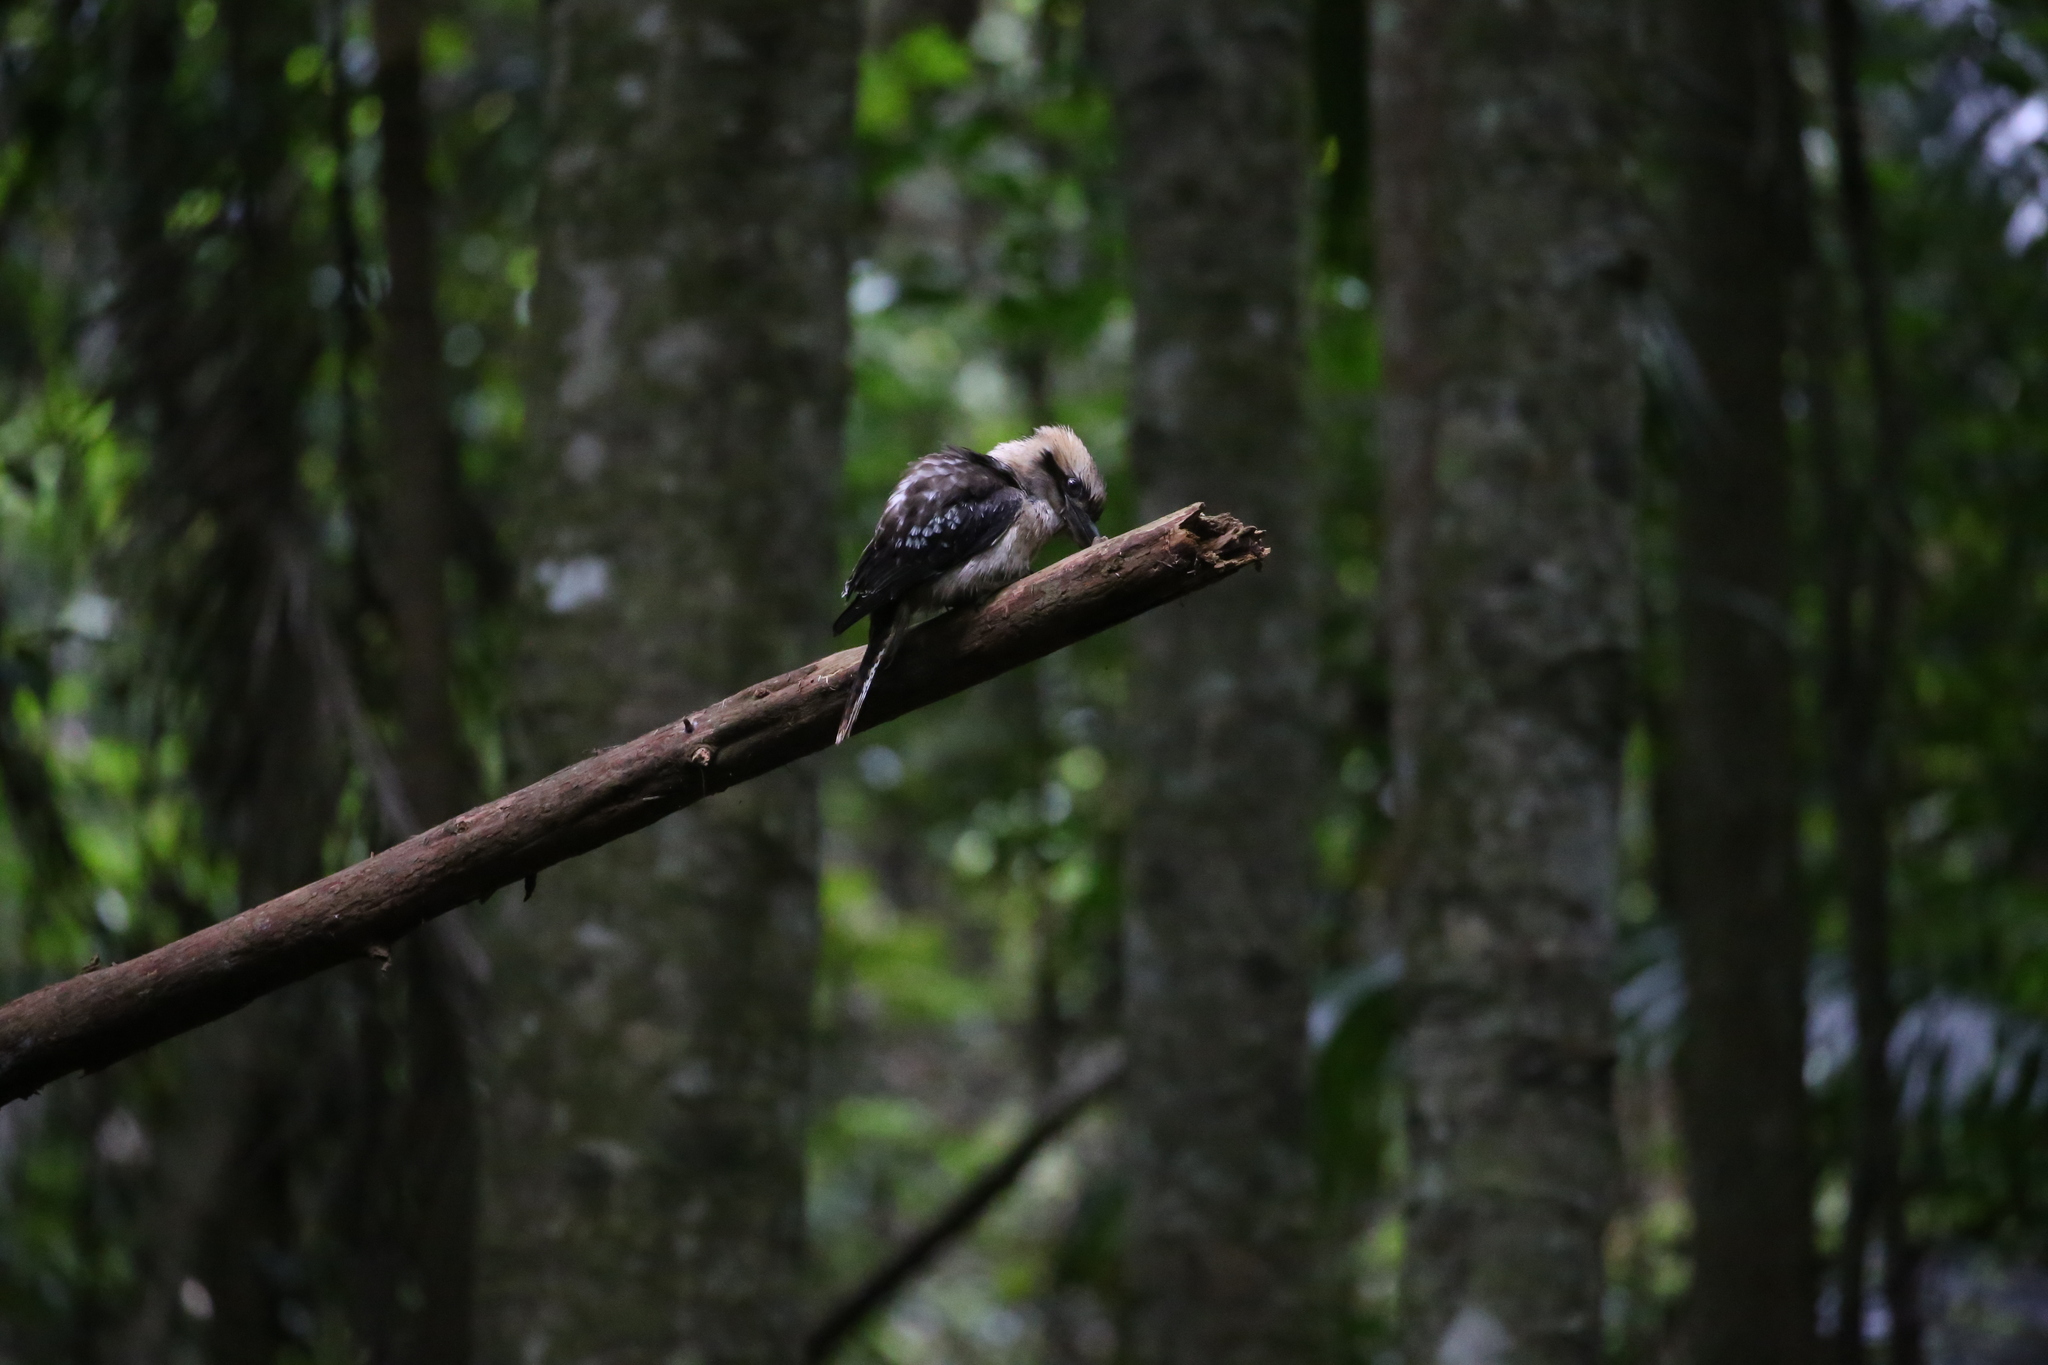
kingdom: Animalia
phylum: Chordata
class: Aves
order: Coraciiformes
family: Alcedinidae
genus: Dacelo
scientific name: Dacelo novaeguineae
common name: Laughing kookaburra
